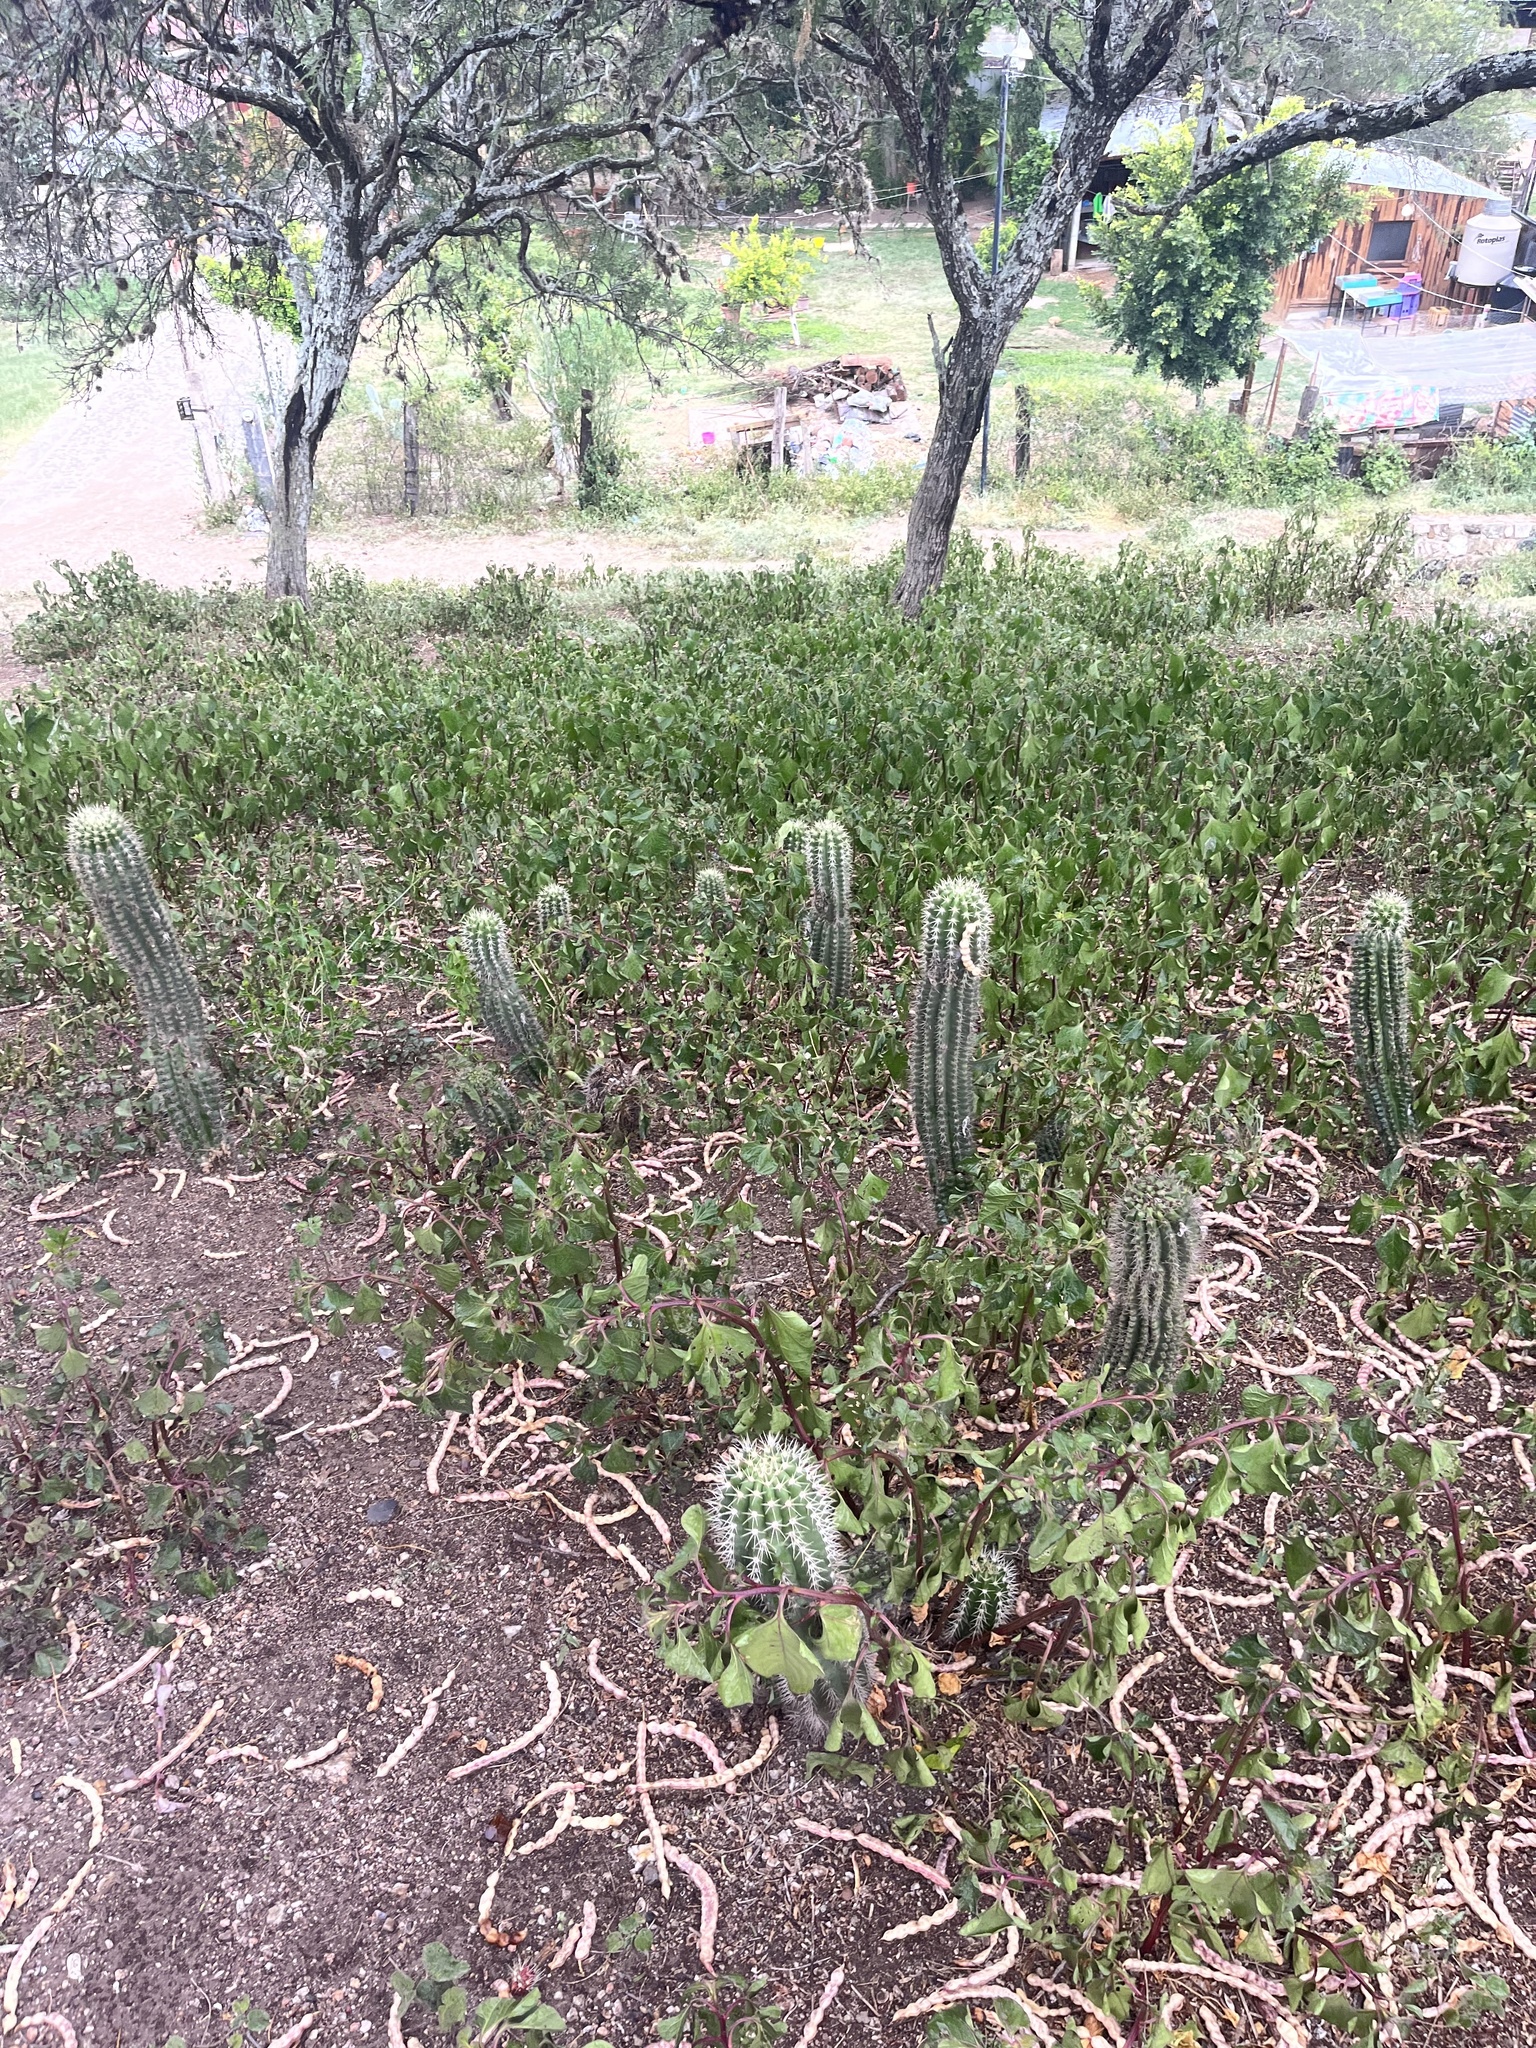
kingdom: Plantae
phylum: Tracheophyta
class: Magnoliopsida
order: Caryophyllales
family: Cactaceae
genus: Pachycereus
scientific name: Pachycereus pecten-aboriginum
